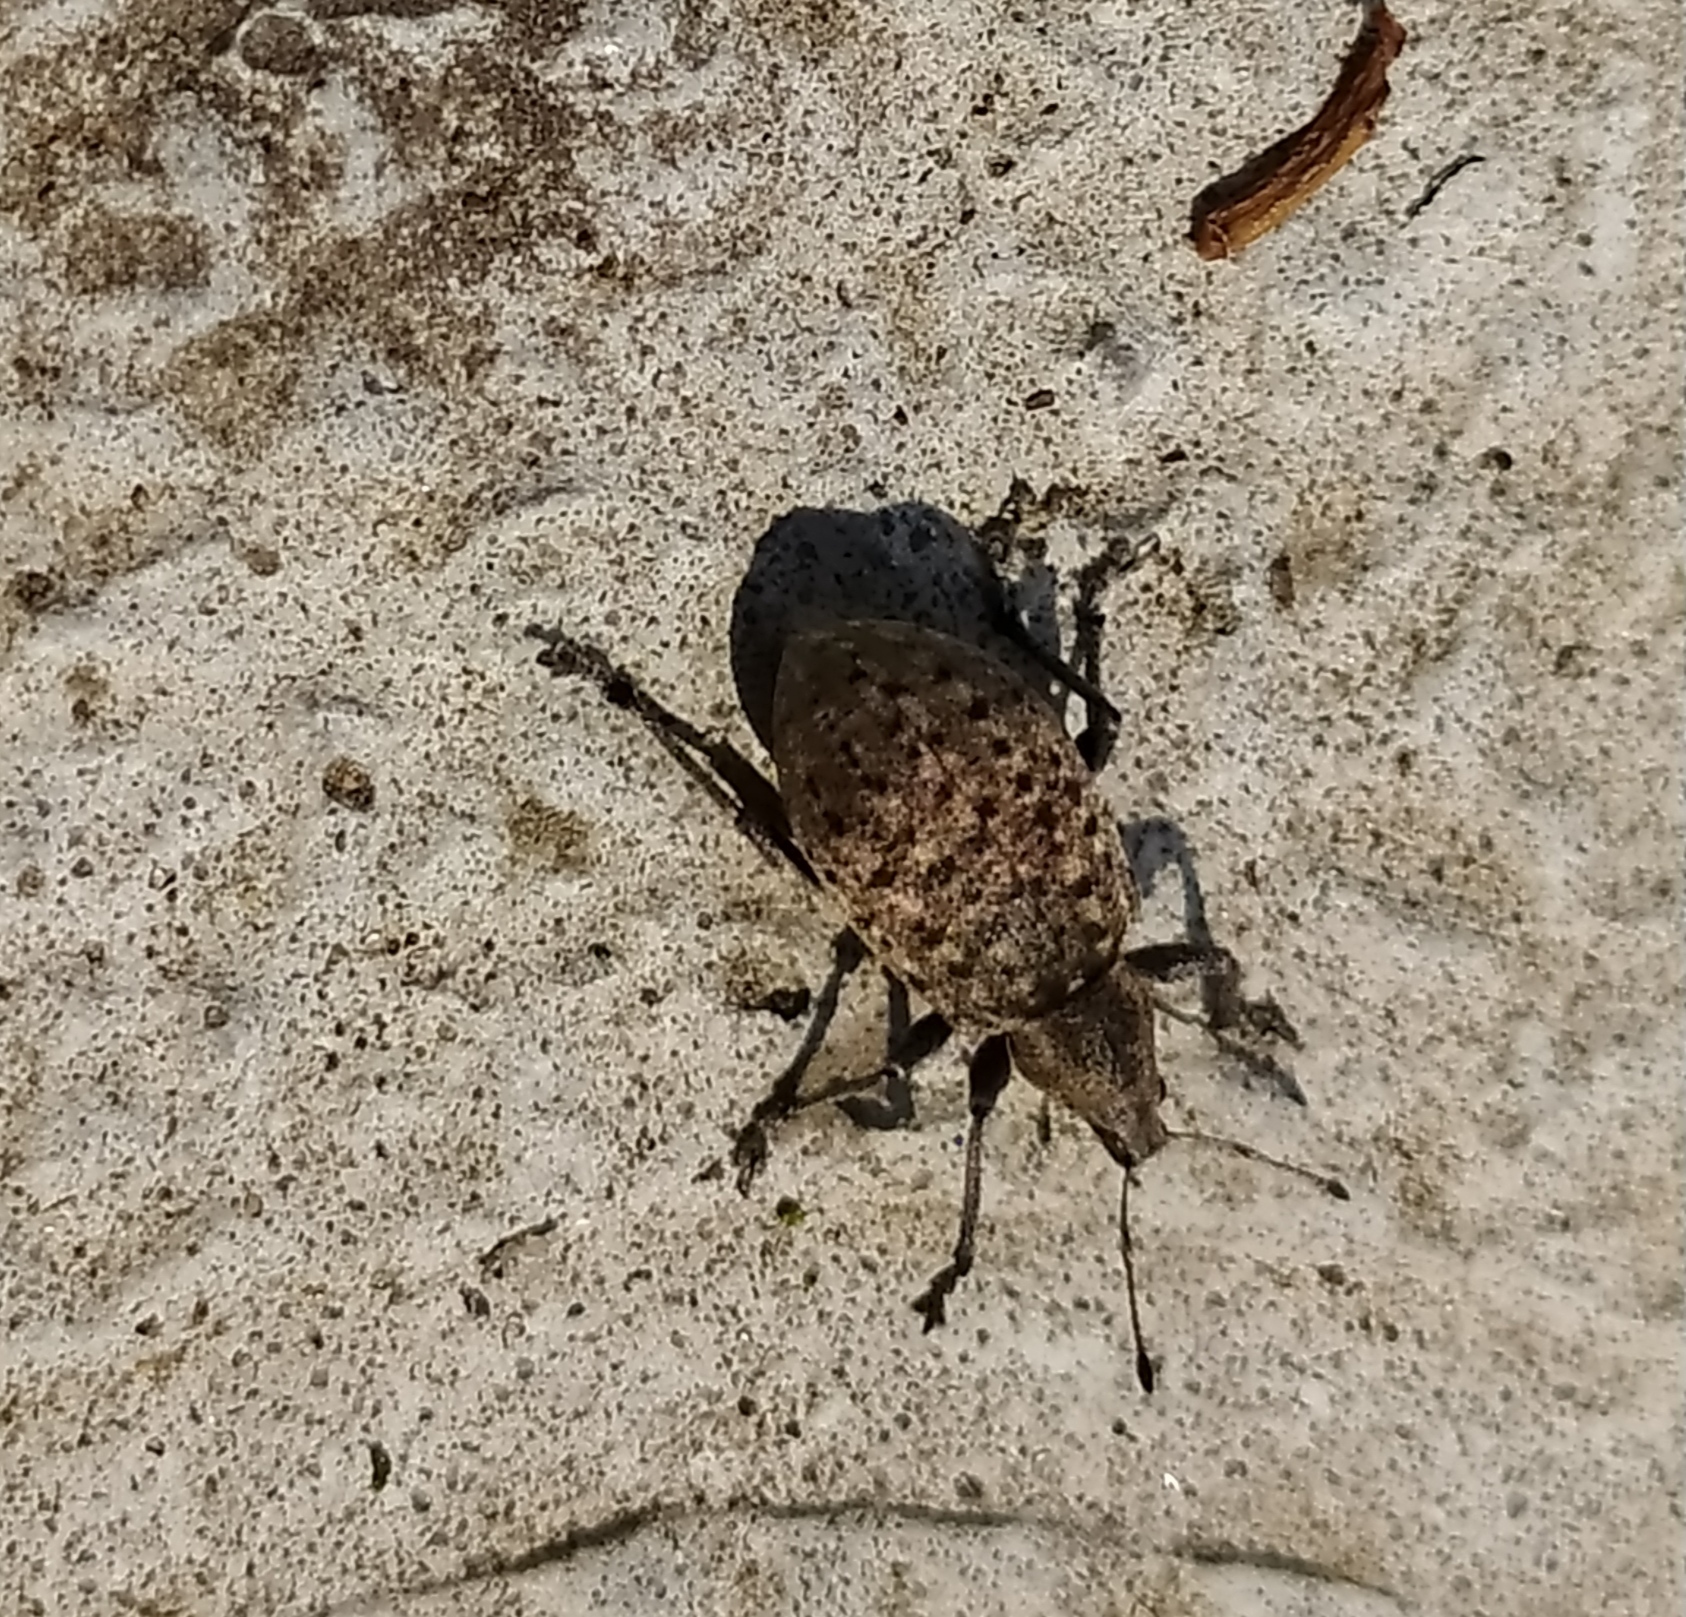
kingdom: Animalia
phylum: Arthropoda
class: Insecta
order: Coleoptera
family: Curculionidae
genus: Liophloeus
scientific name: Liophloeus tessulatus
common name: Weevil
